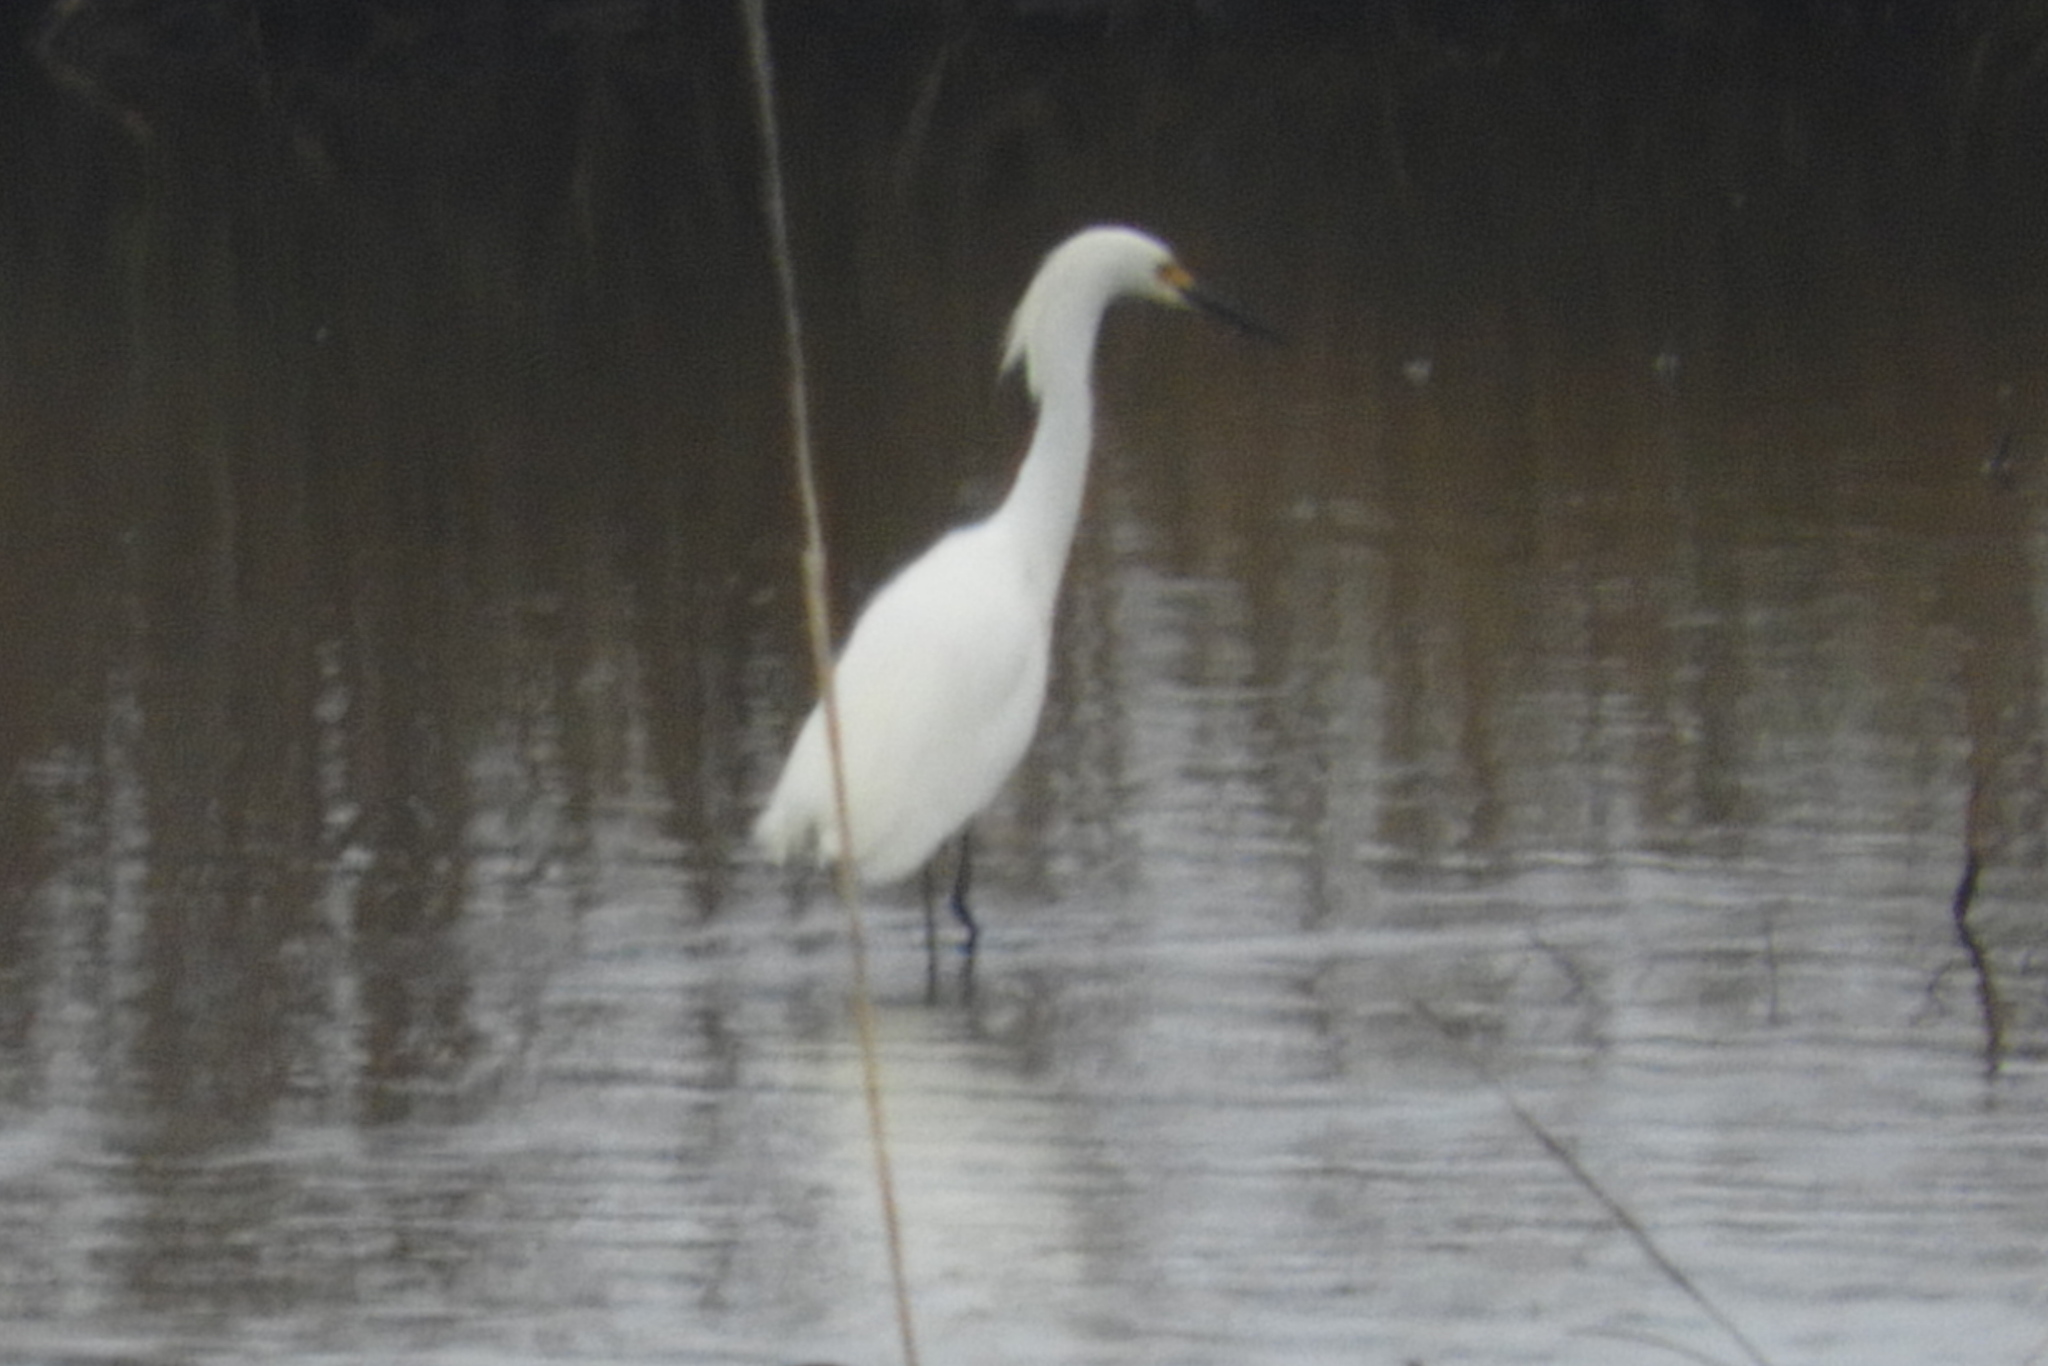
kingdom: Animalia
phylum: Chordata
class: Aves
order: Pelecaniformes
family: Ardeidae
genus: Egretta
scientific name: Egretta thula
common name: Snowy egret
